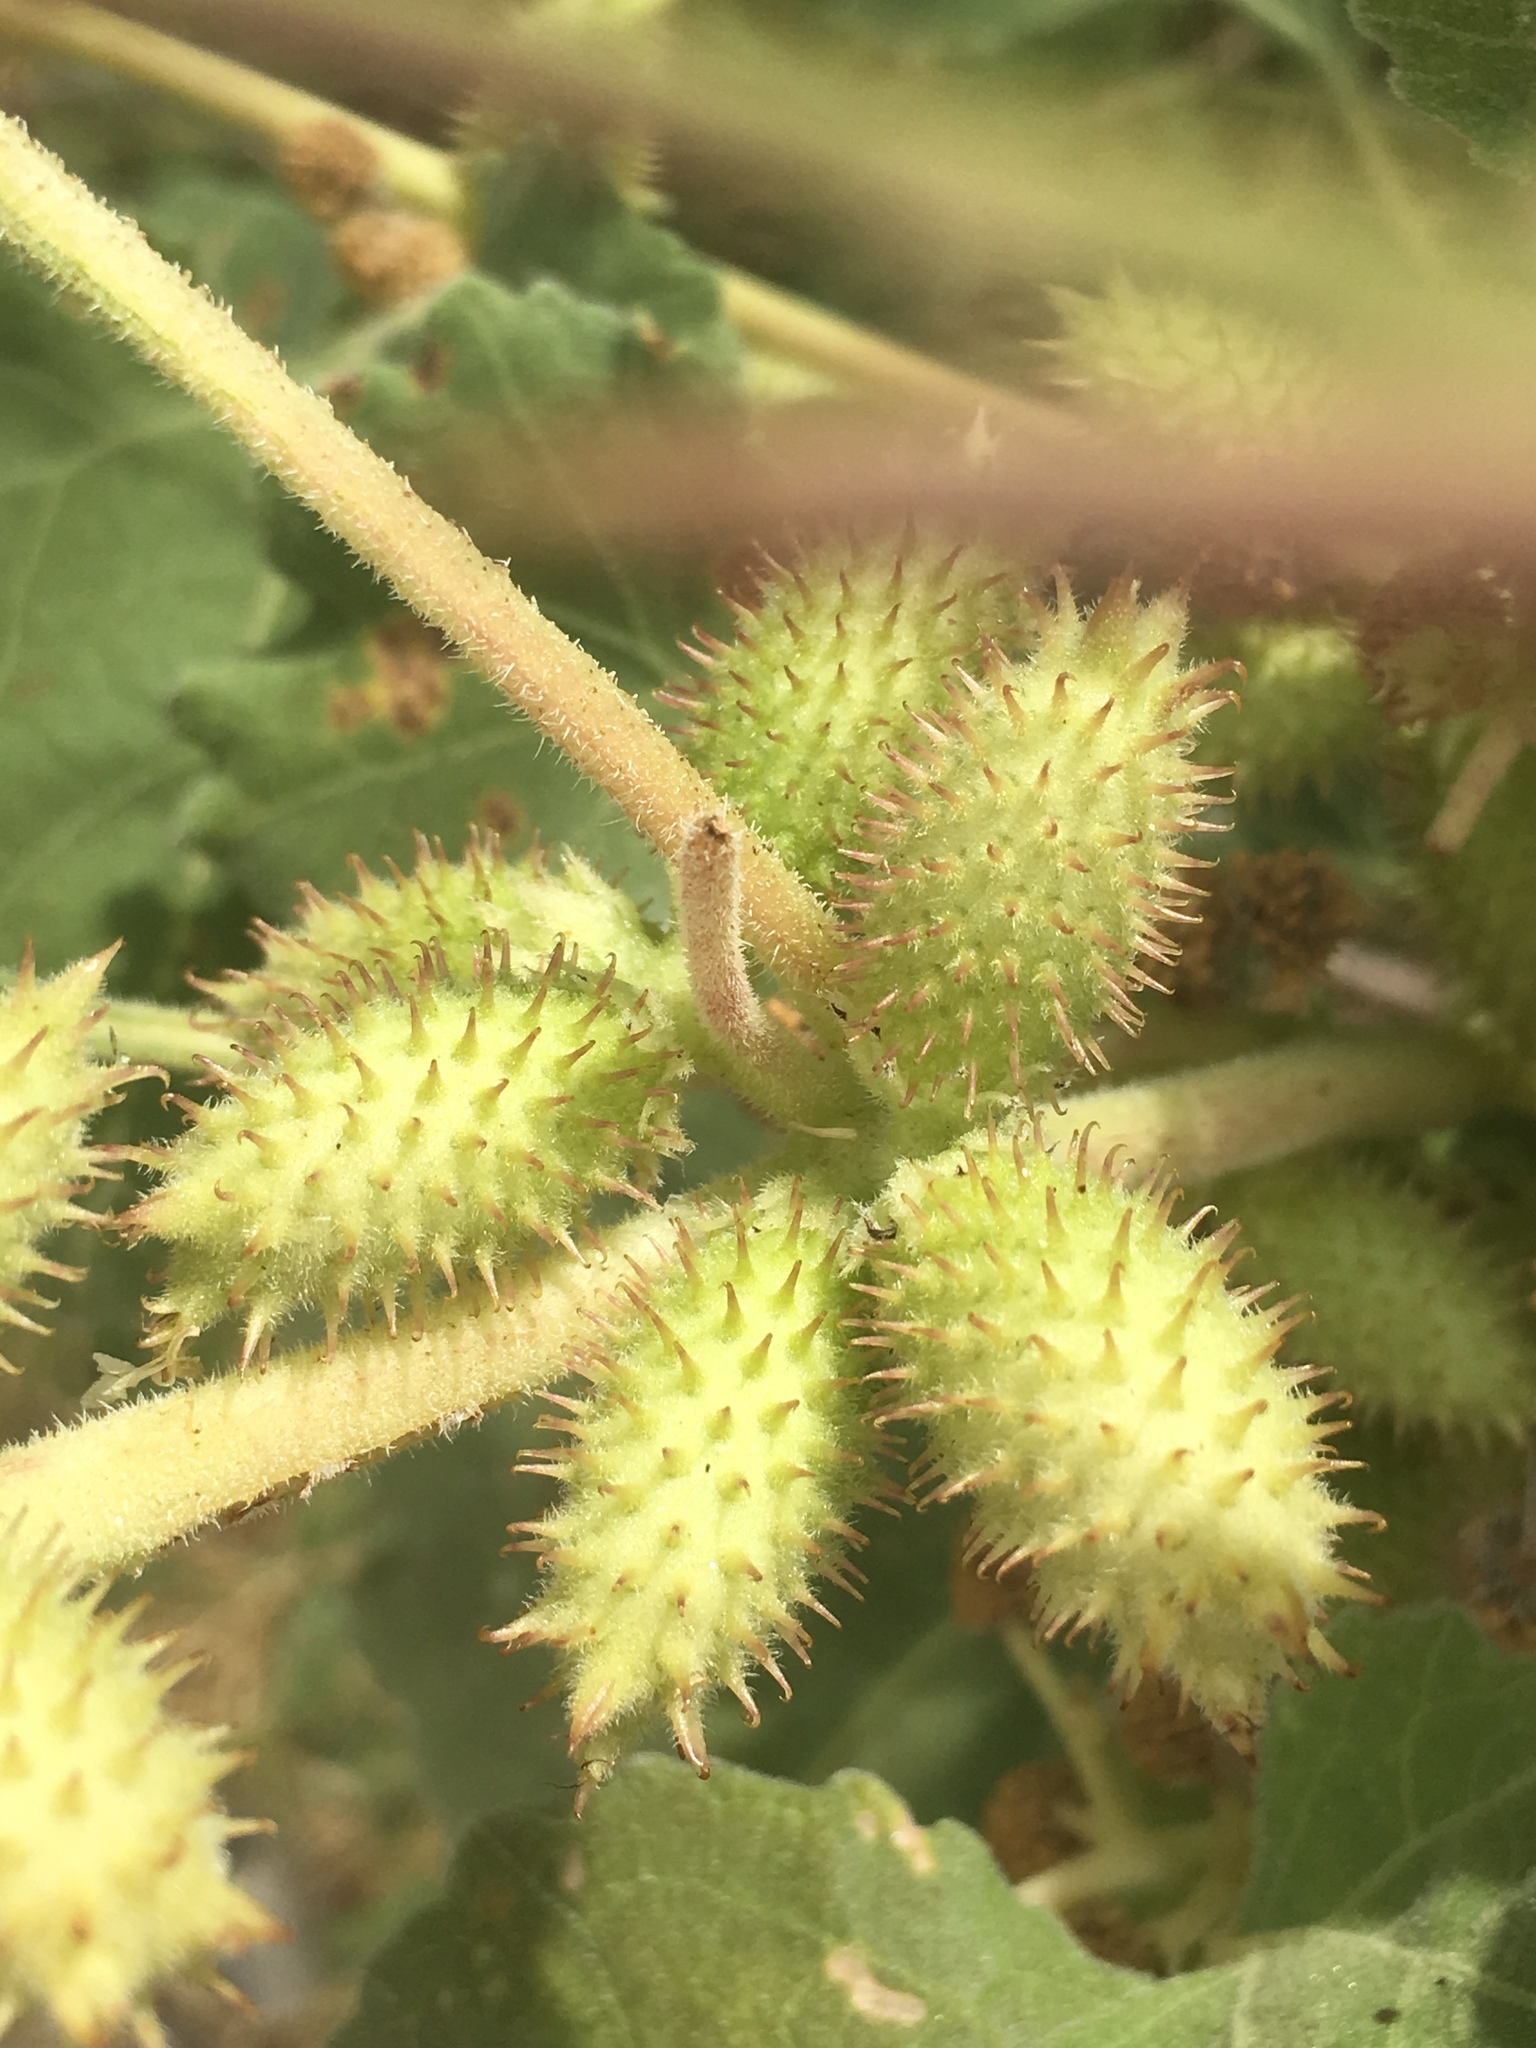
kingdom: Plantae
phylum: Tracheophyta
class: Magnoliopsida
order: Asterales
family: Asteraceae
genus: Xanthium
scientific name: Xanthium strumarium
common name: Rough cocklebur
